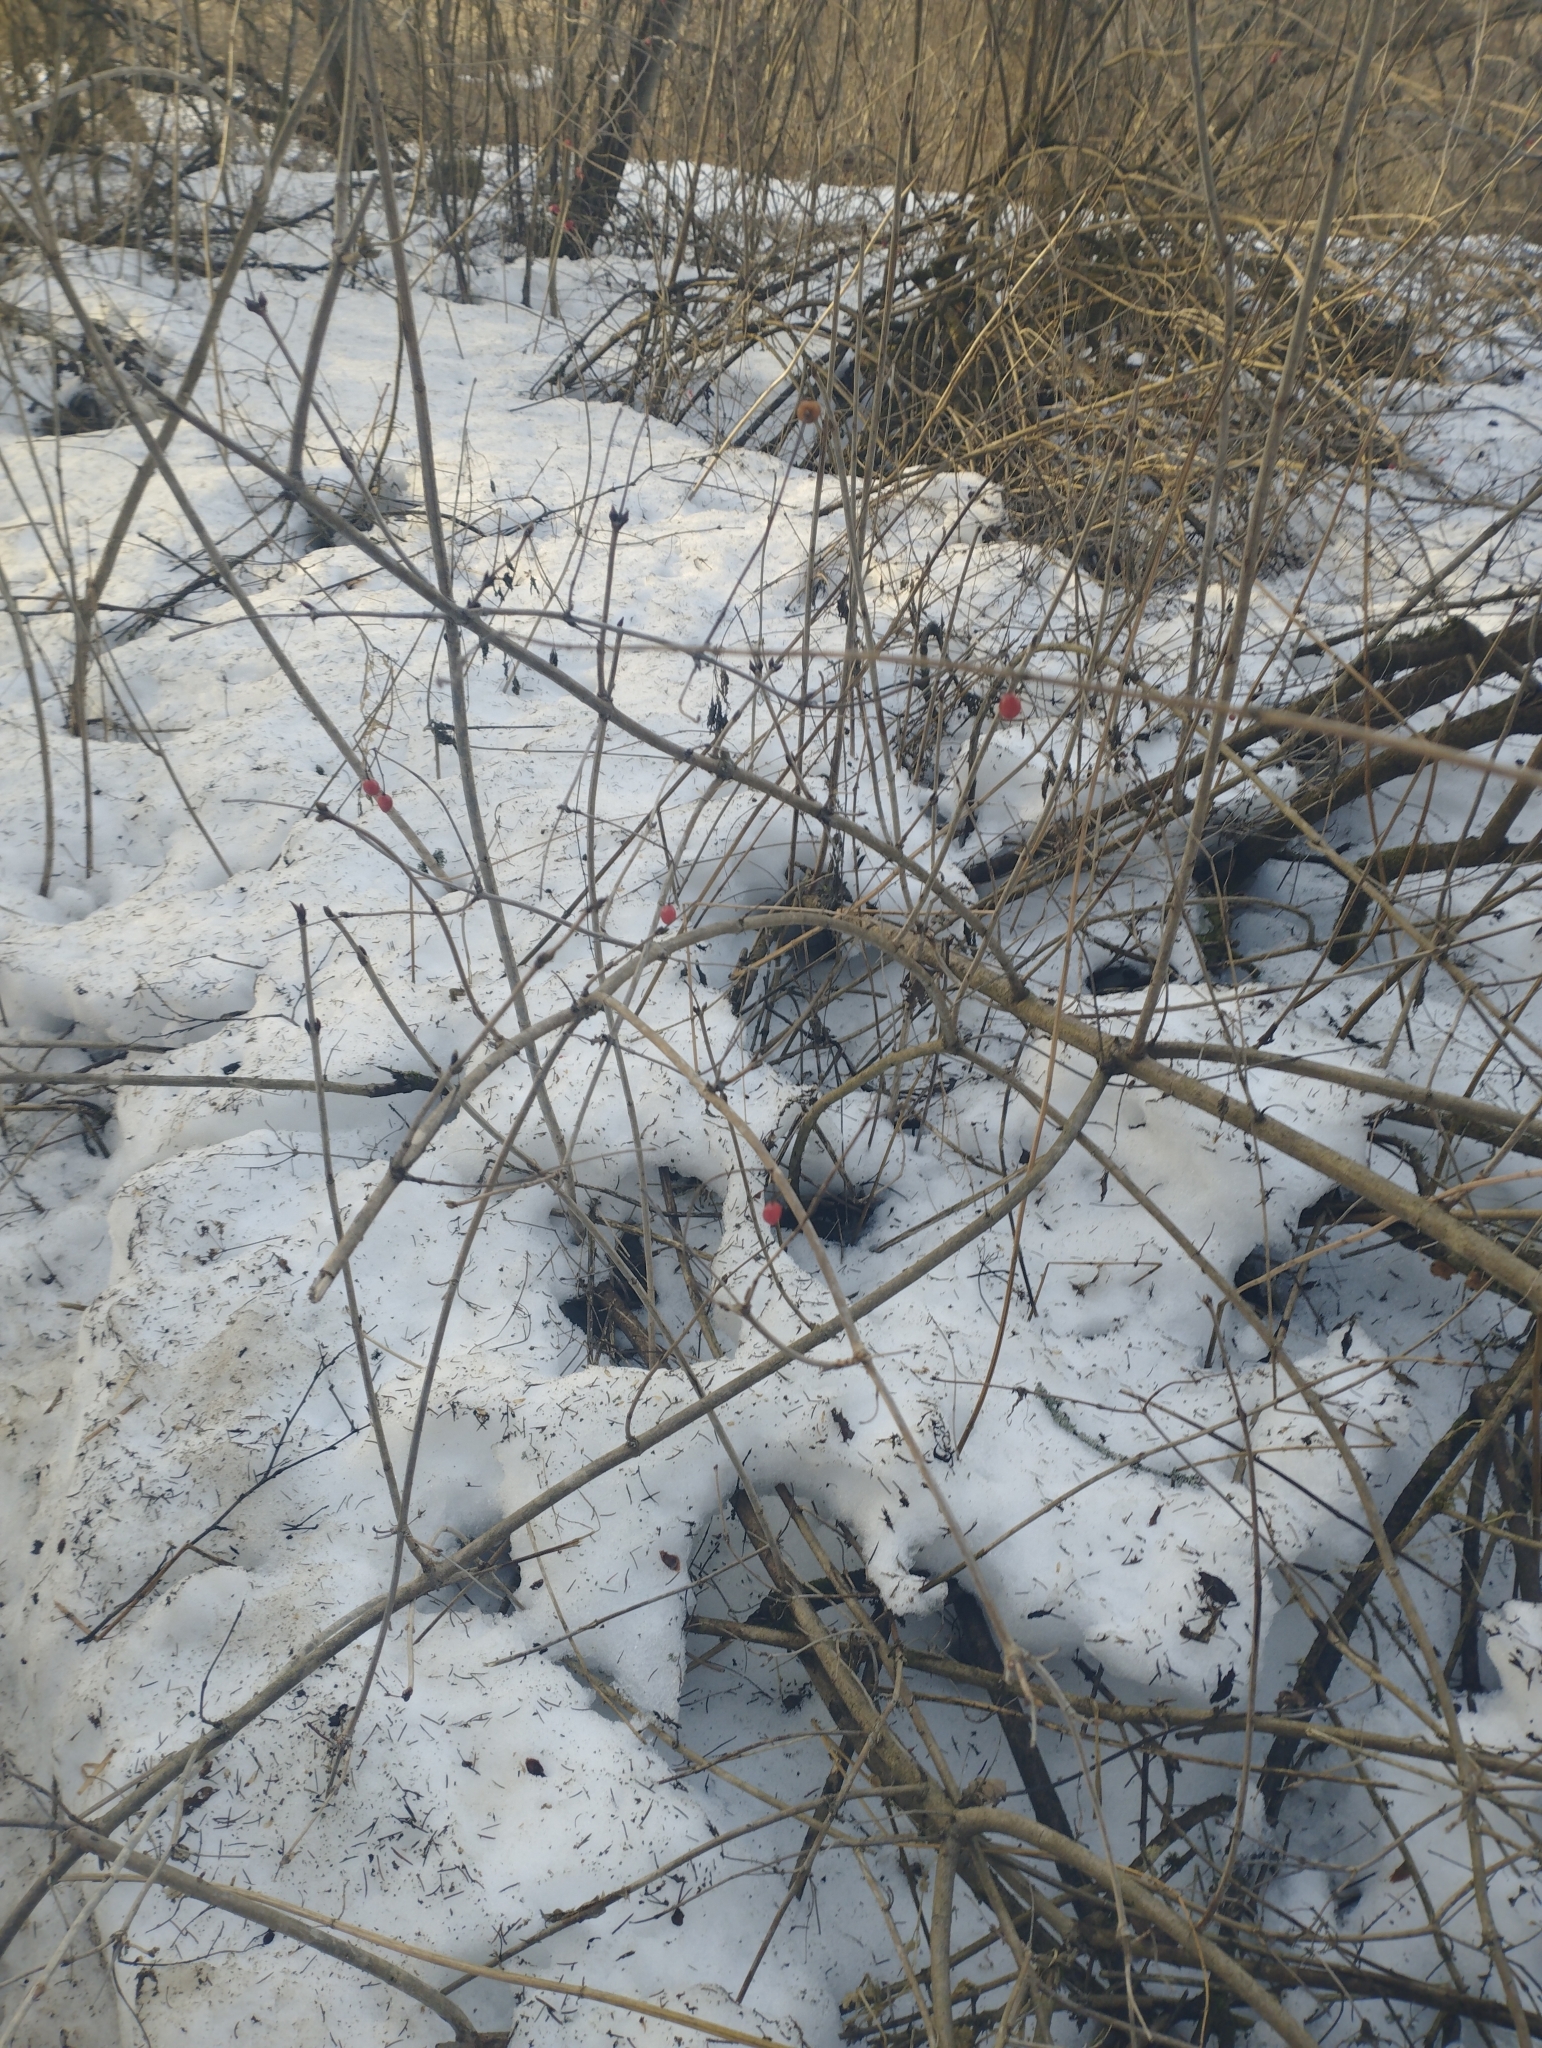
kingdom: Plantae
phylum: Tracheophyta
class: Magnoliopsida
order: Dipsacales
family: Viburnaceae
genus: Viburnum
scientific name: Viburnum opulus
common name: Guelder-rose
